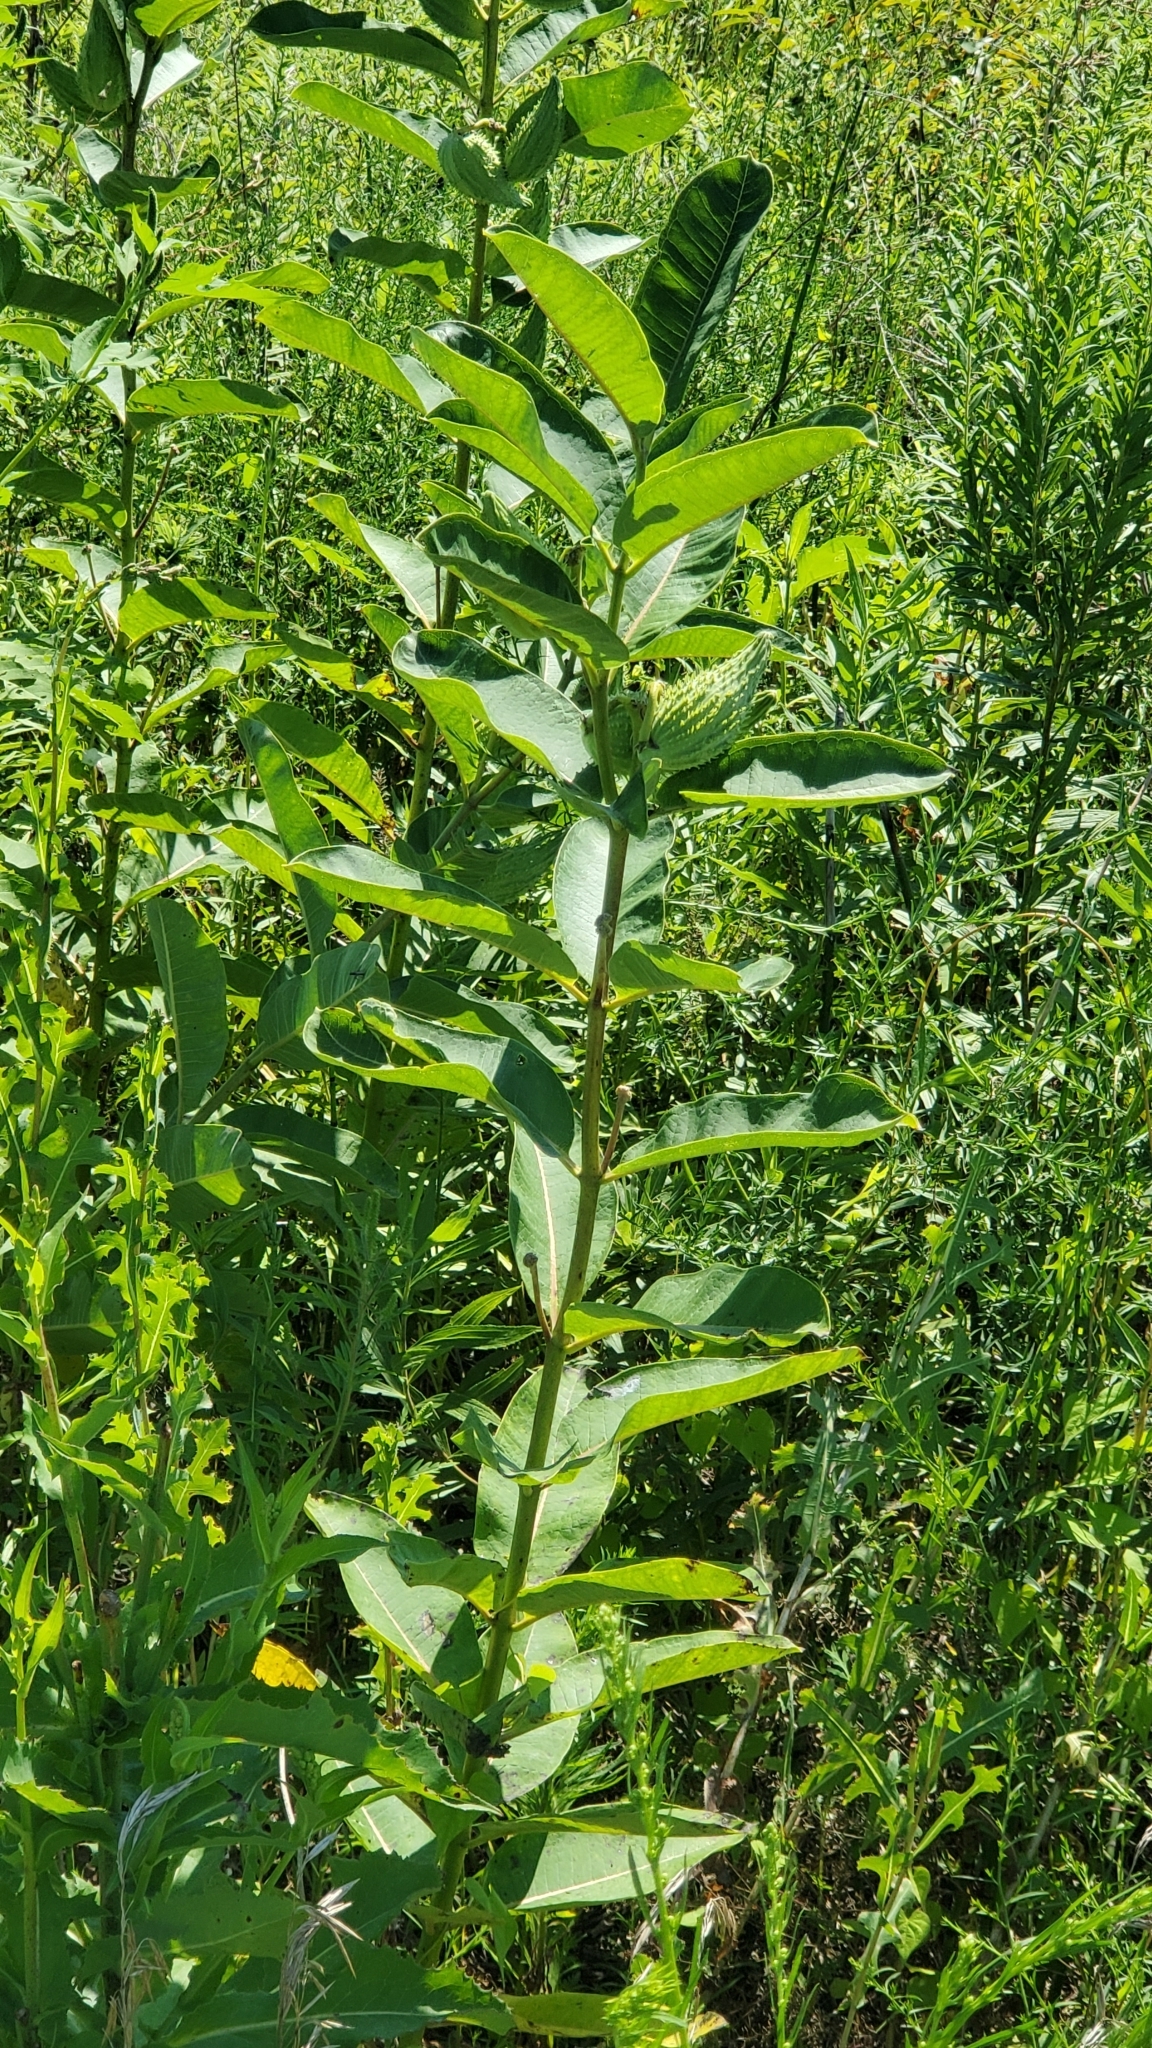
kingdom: Plantae
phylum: Tracheophyta
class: Magnoliopsida
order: Gentianales
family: Apocynaceae
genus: Asclepias
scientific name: Asclepias syriaca
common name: Common milkweed
